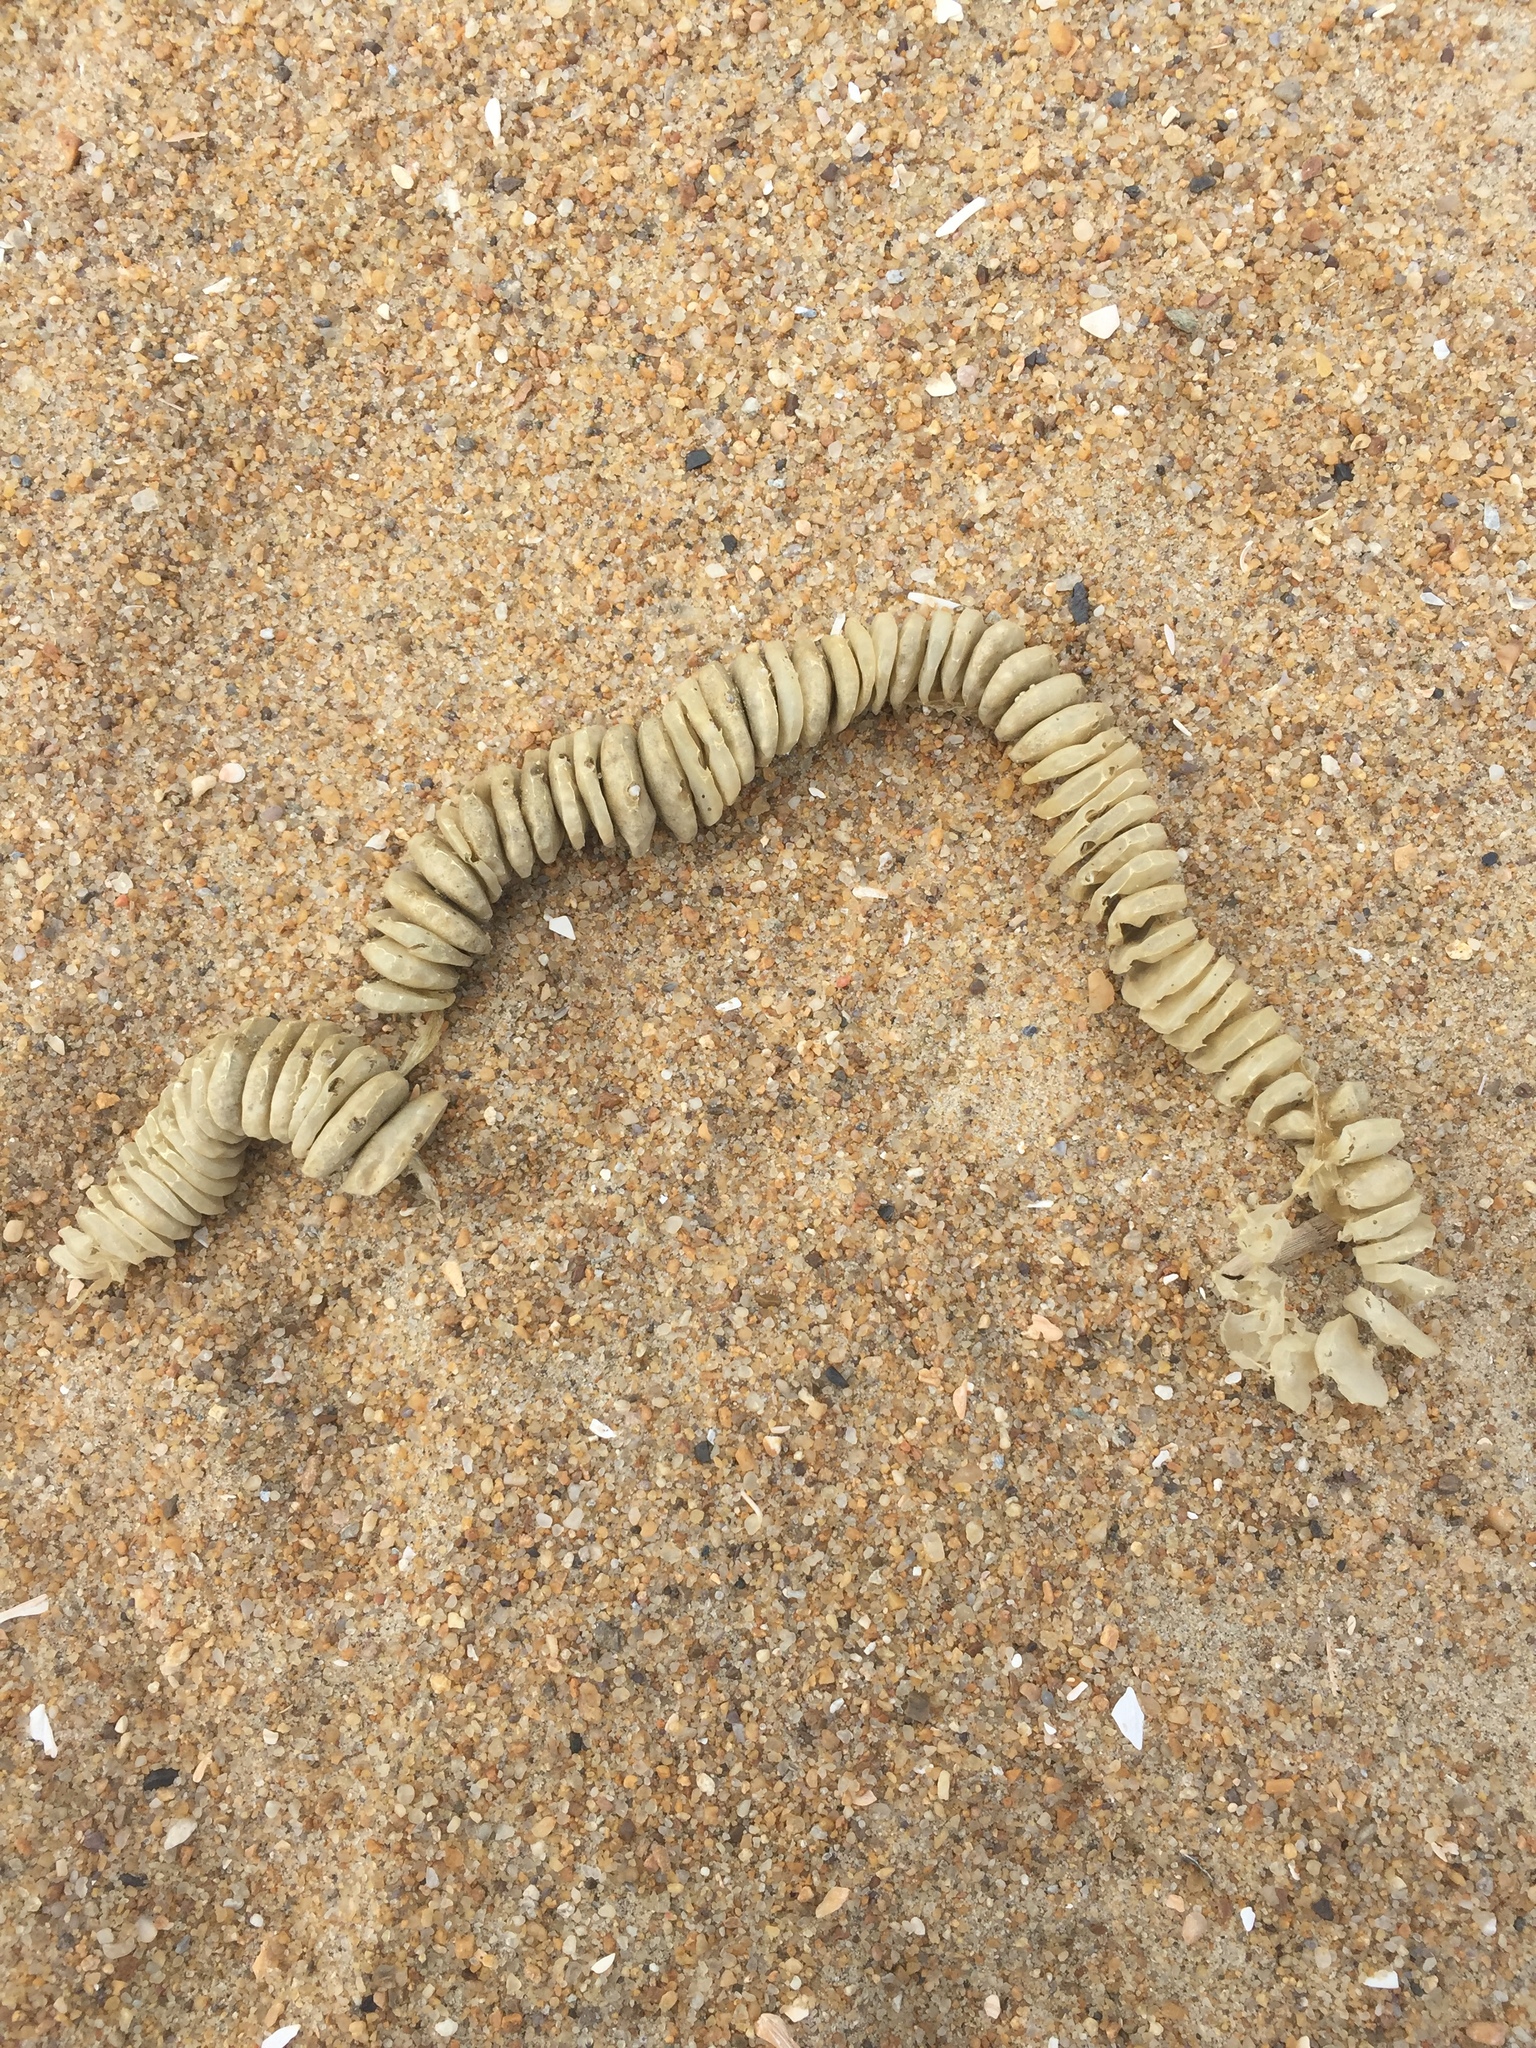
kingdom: Animalia
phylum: Mollusca
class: Gastropoda
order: Neogastropoda
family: Busyconidae
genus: Busycon
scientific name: Busycon carica
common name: Knobbed whelk
